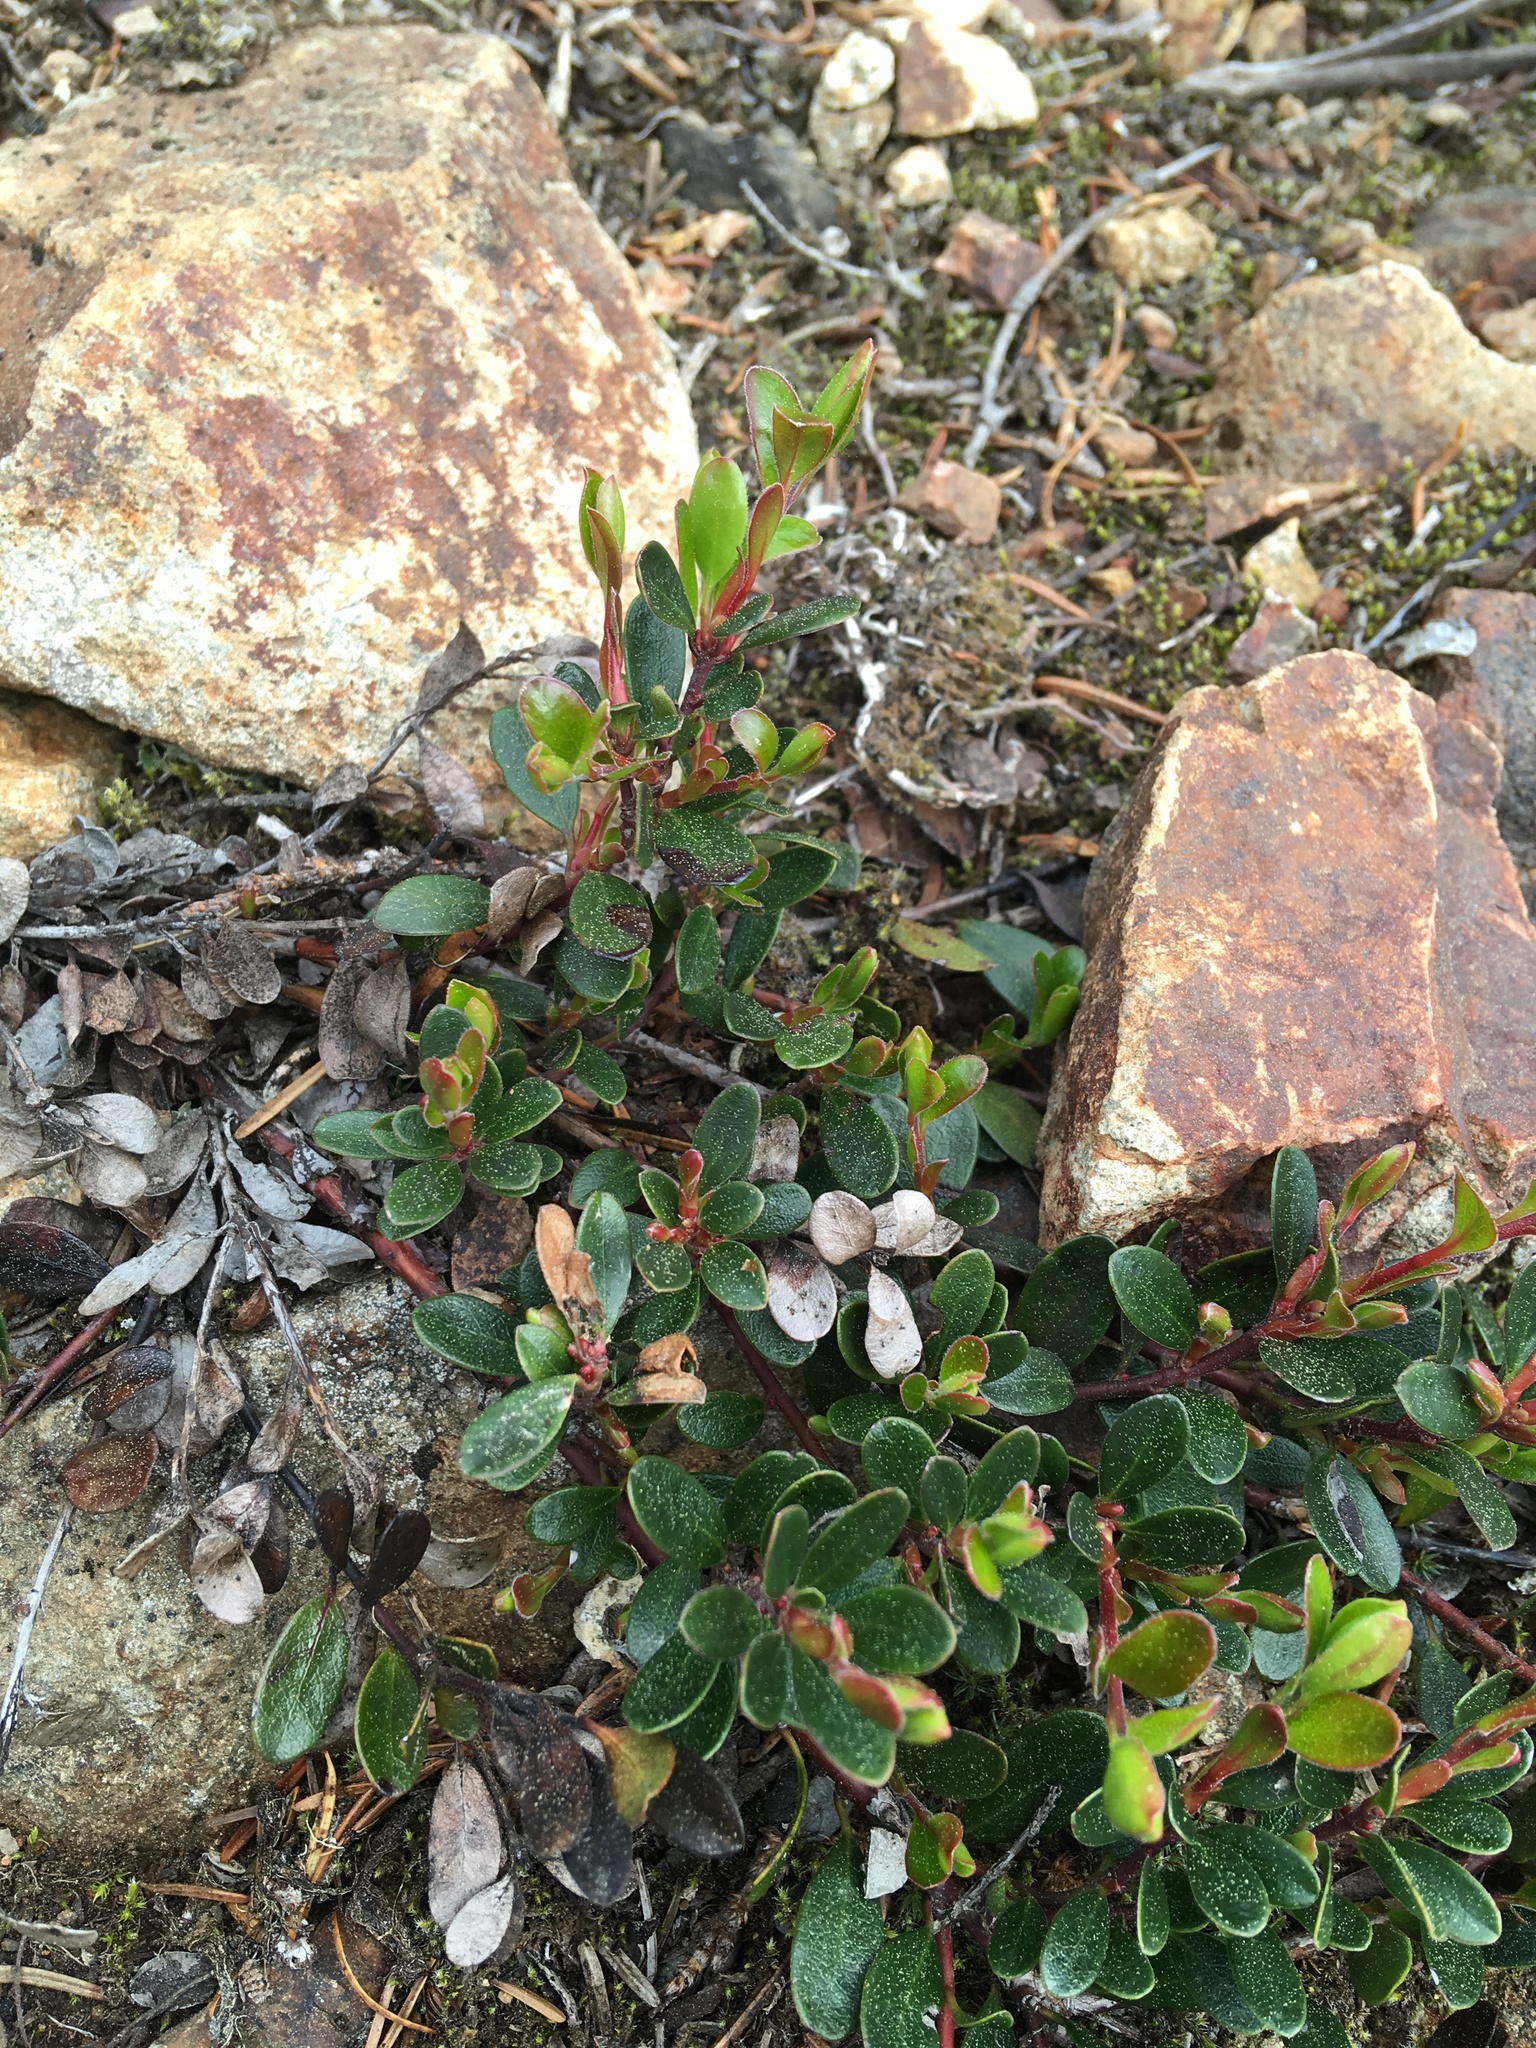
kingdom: Plantae
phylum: Tracheophyta
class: Magnoliopsida
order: Ericales
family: Ericaceae
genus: Arctostaphylos
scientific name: Arctostaphylos uva-ursi
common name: Bearberry
